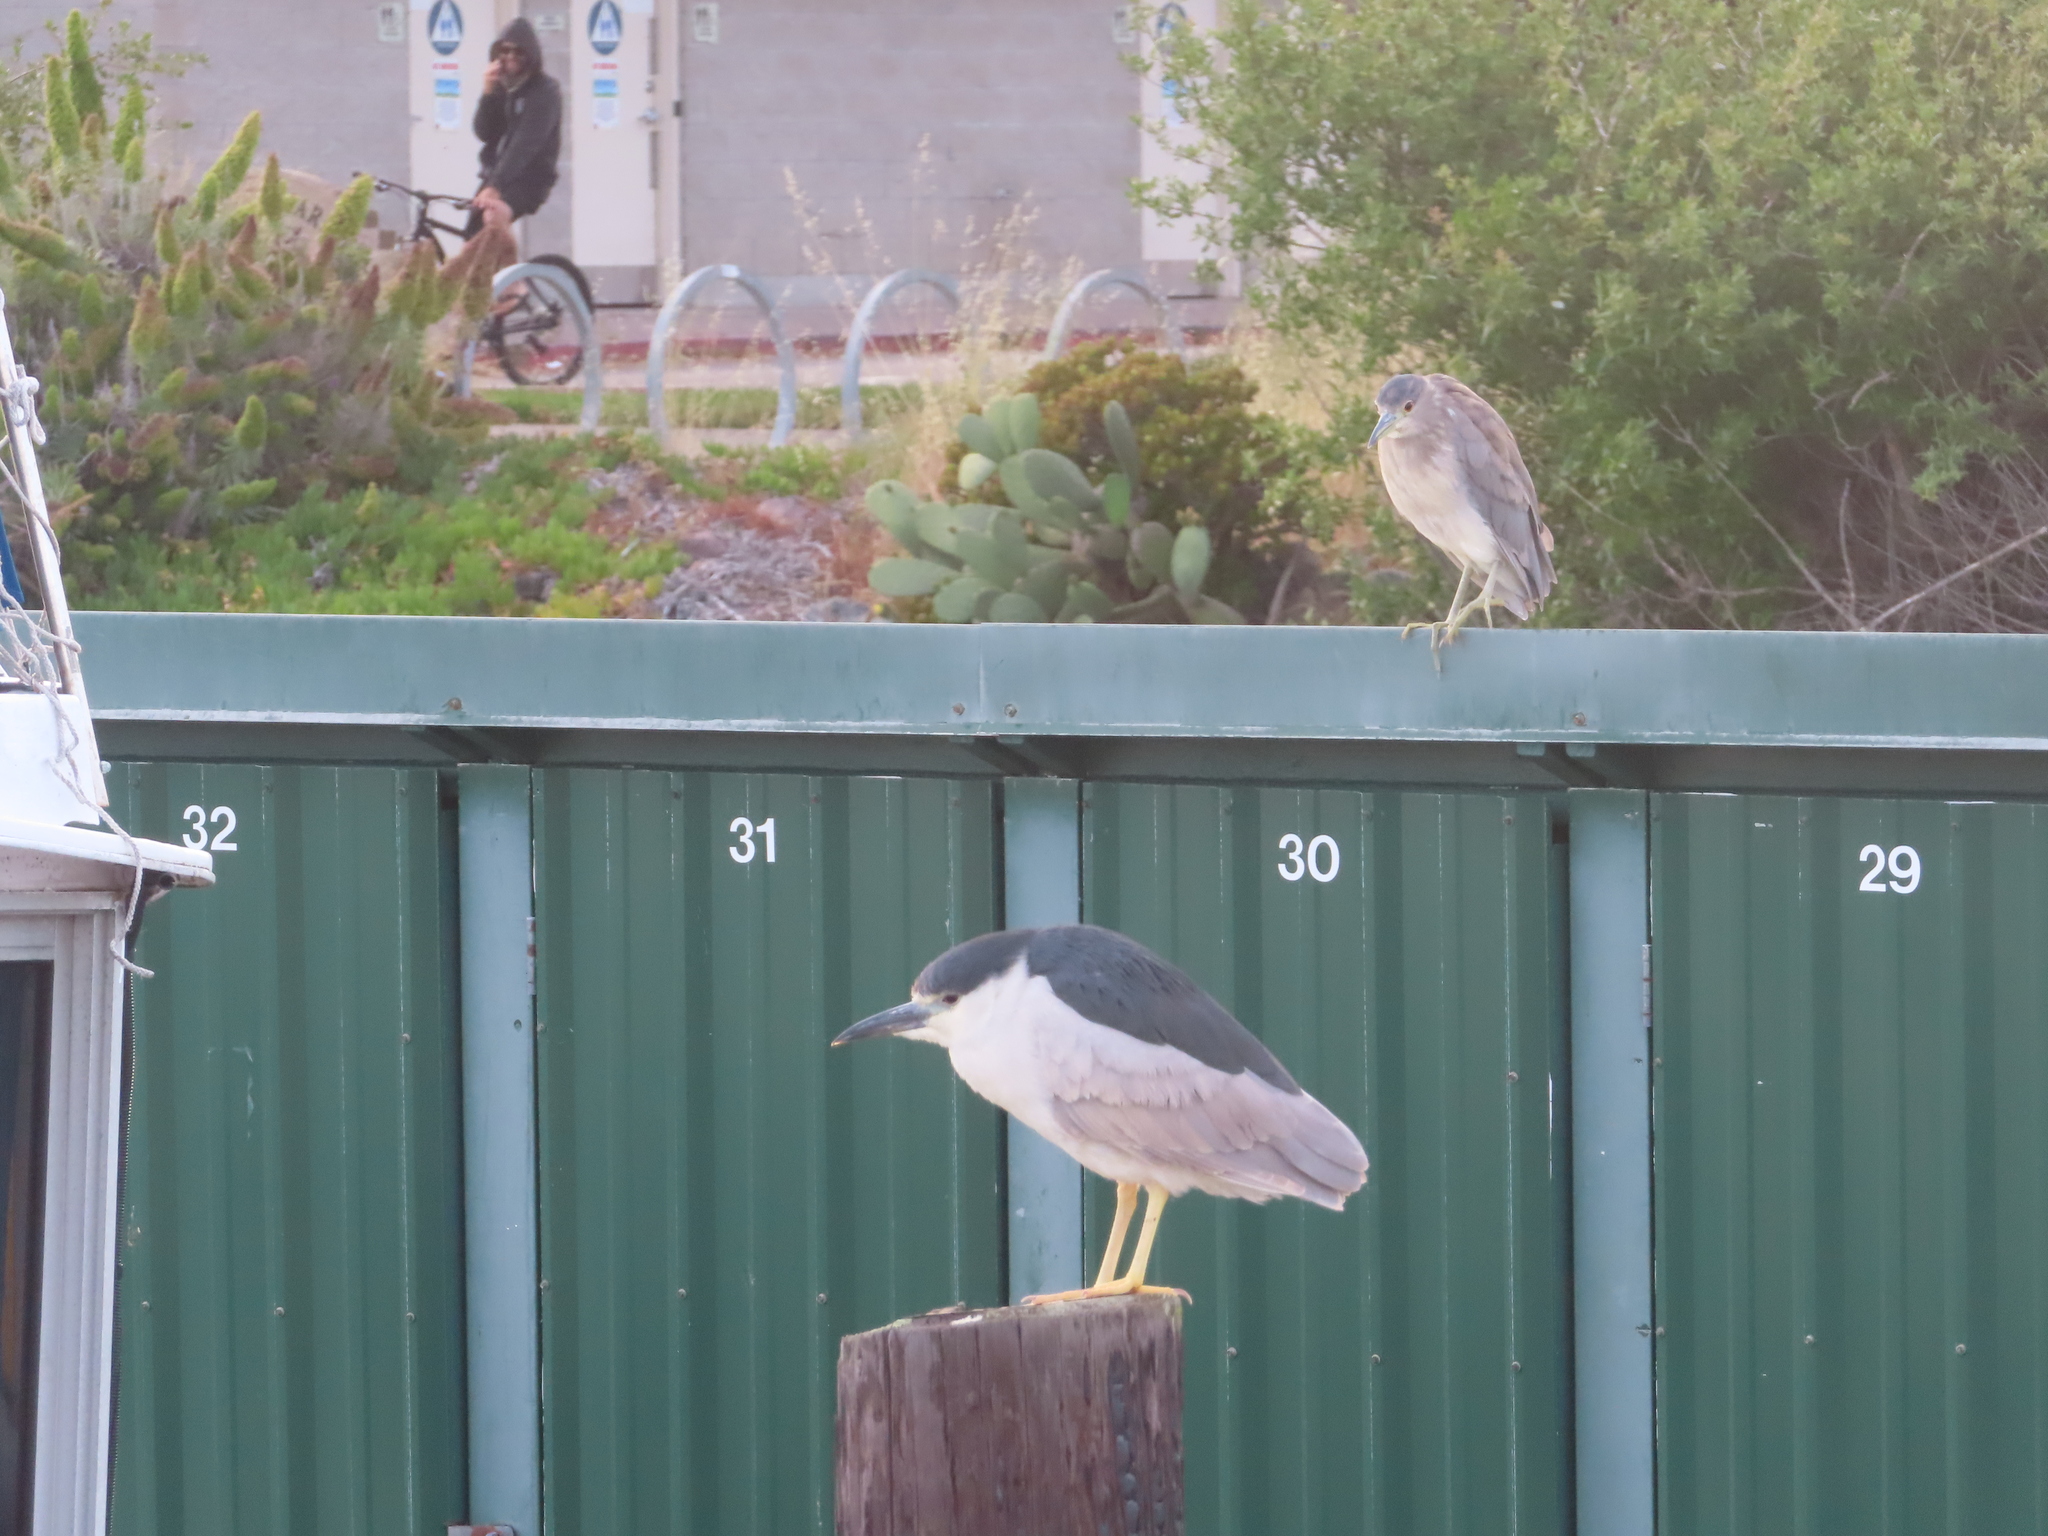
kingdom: Animalia
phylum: Chordata
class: Aves
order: Pelecaniformes
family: Ardeidae
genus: Nycticorax
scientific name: Nycticorax nycticorax
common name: Black-crowned night heron
